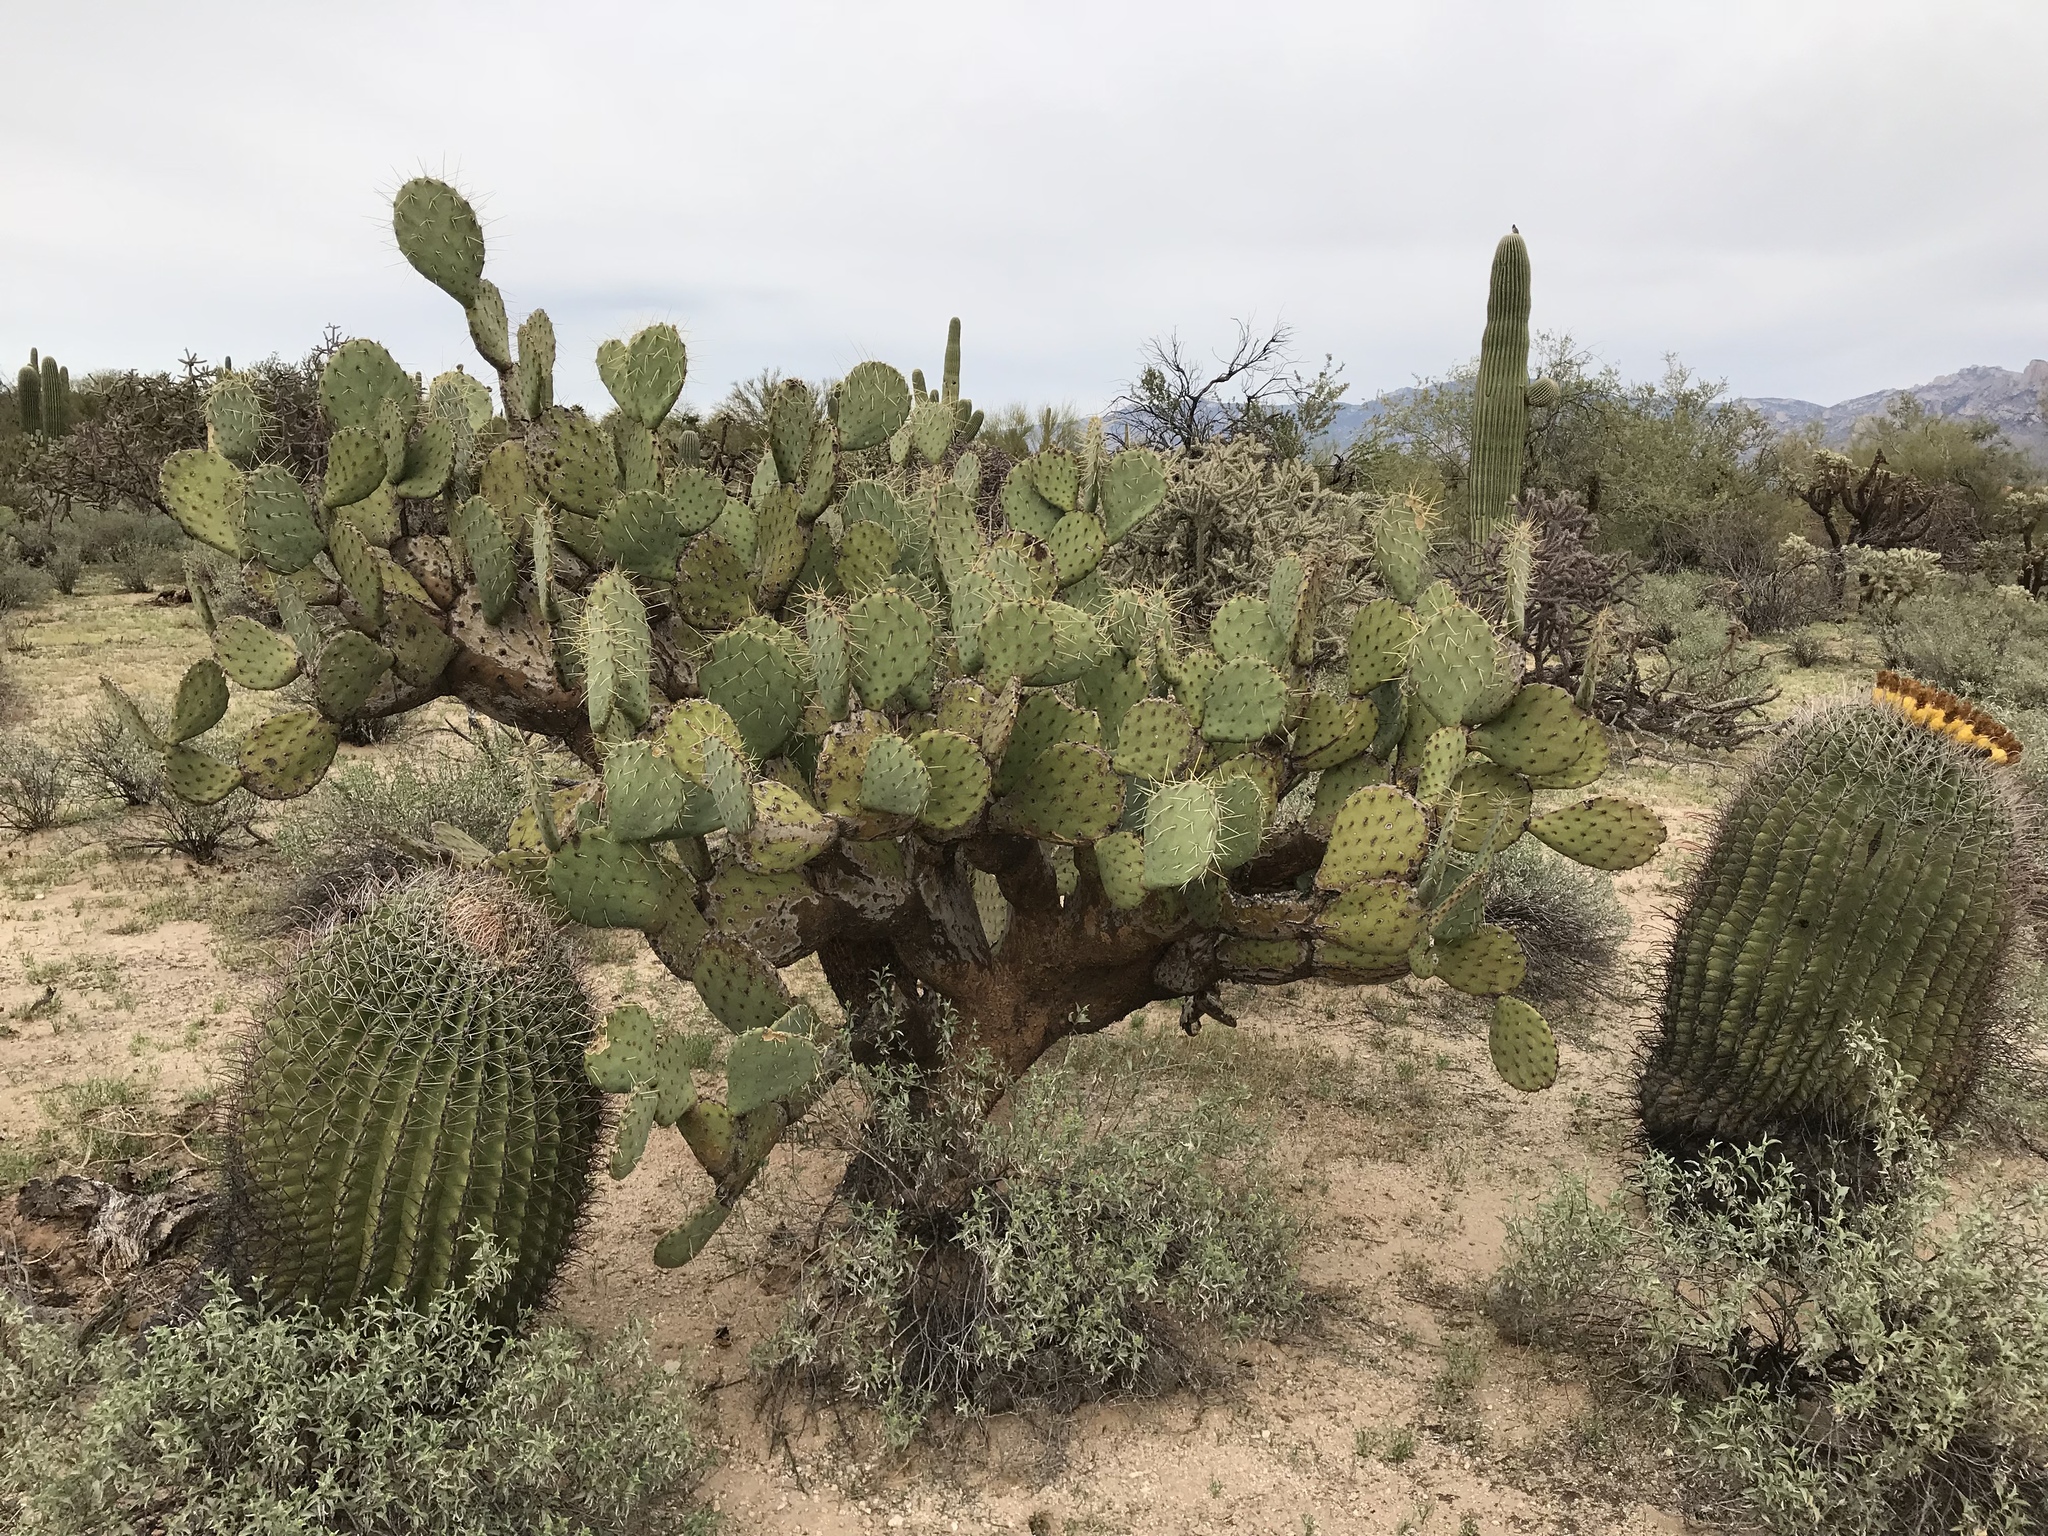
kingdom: Plantae
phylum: Tracheophyta
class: Magnoliopsida
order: Caryophyllales
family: Cactaceae
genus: Opuntia
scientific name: Opuntia orbiculata
